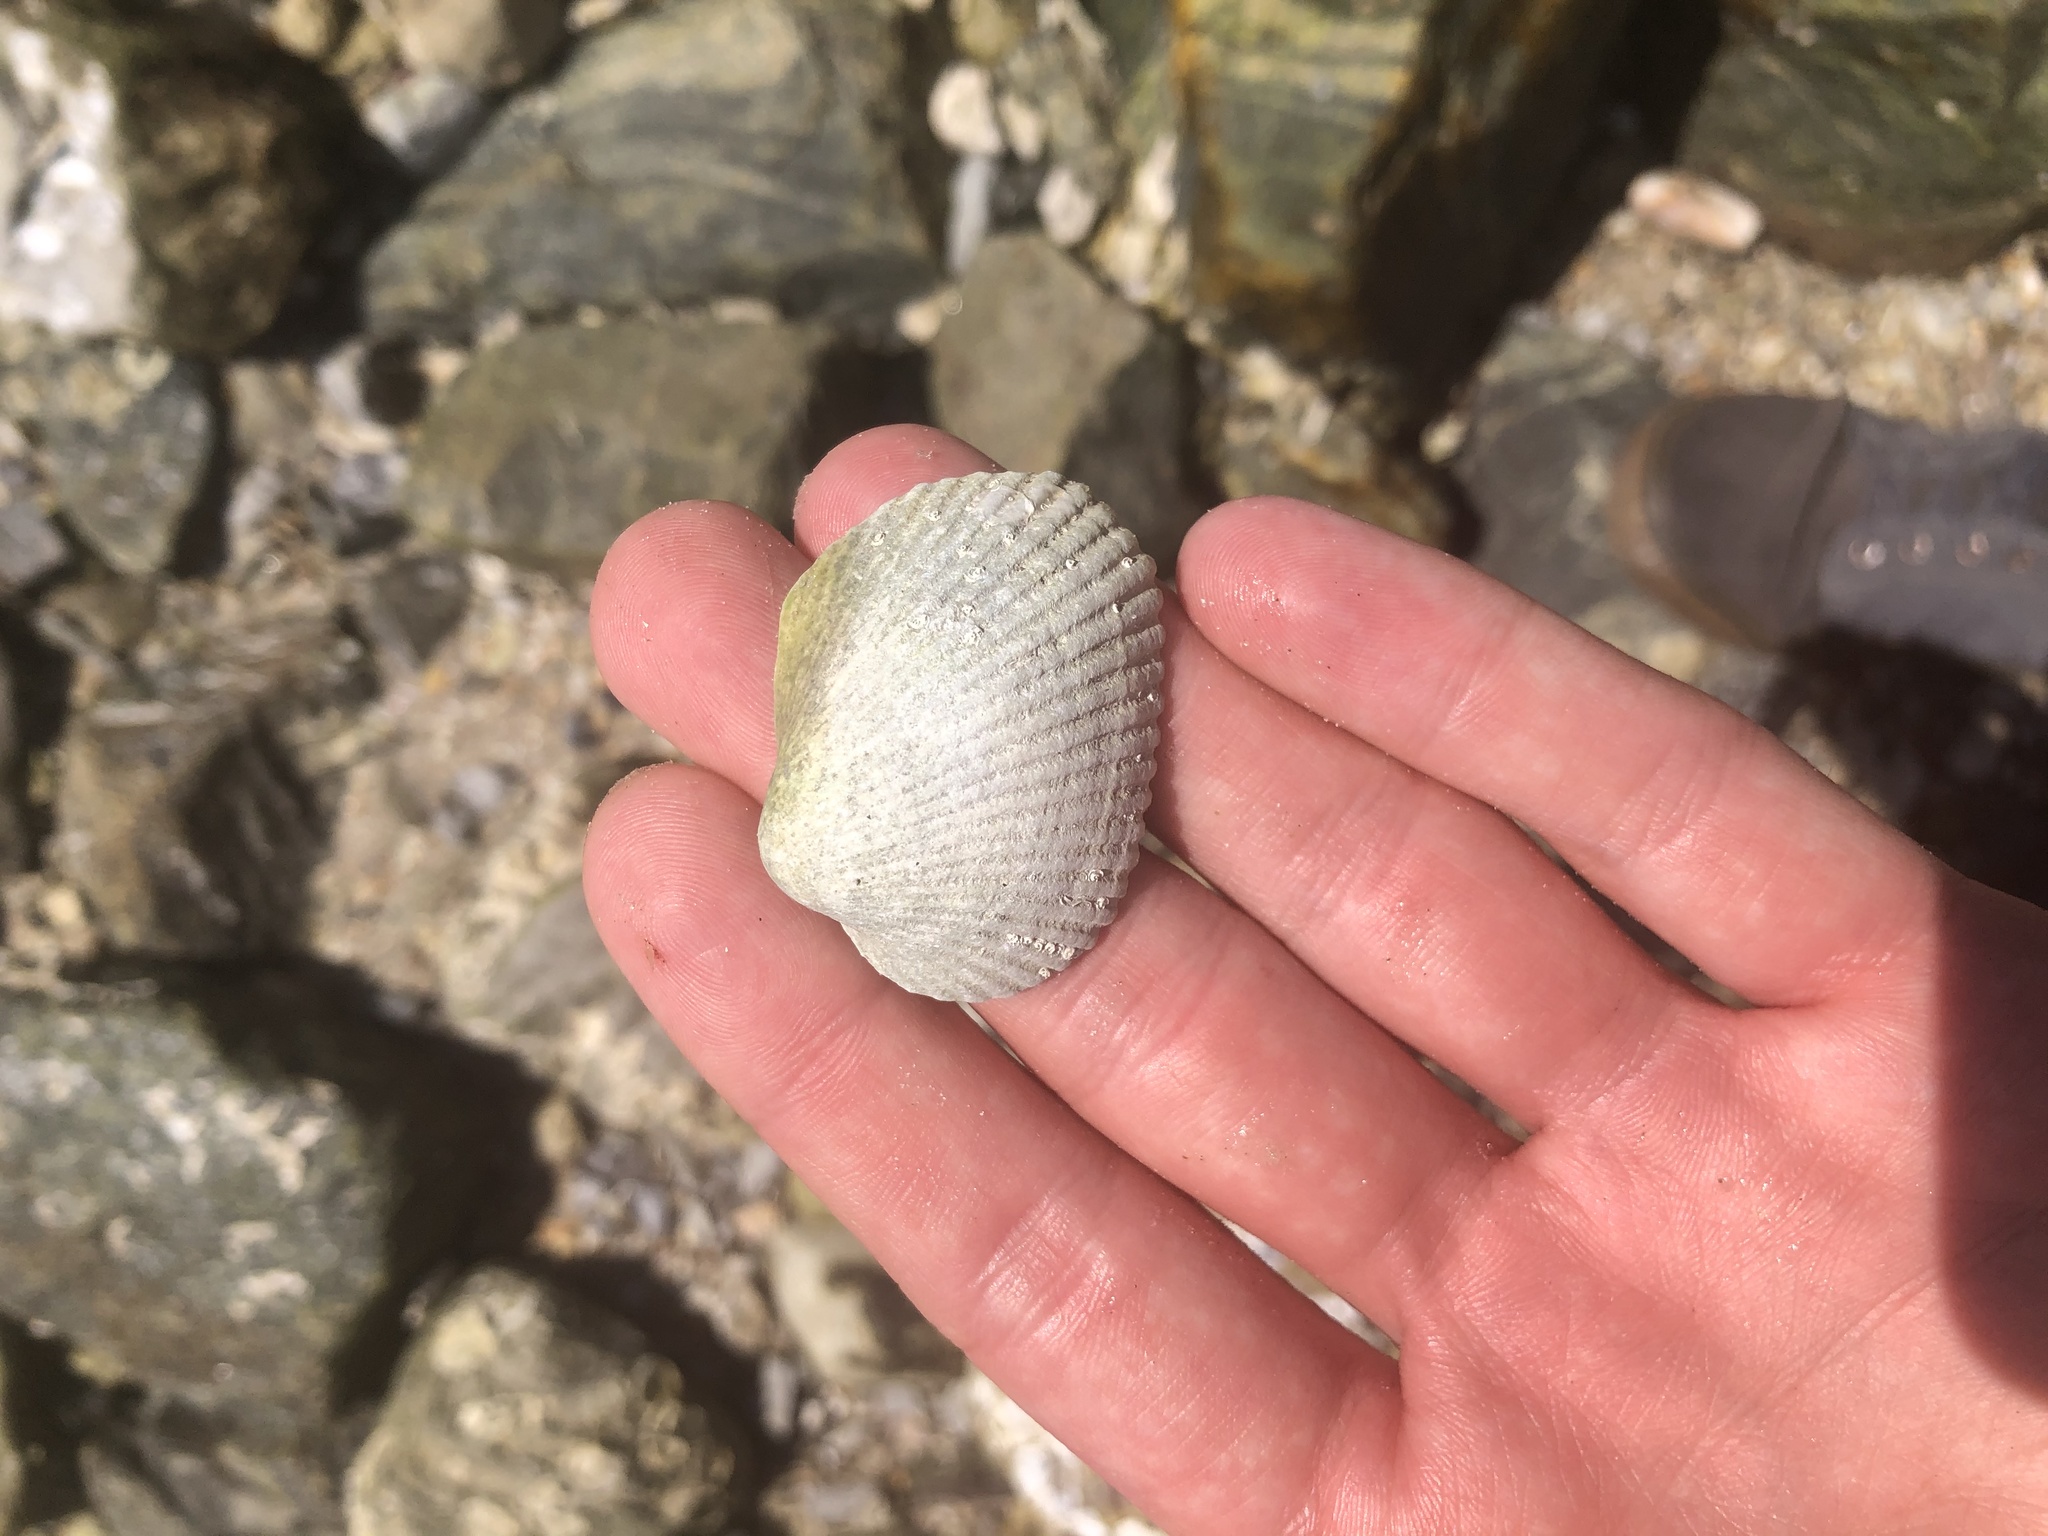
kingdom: Animalia
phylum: Mollusca
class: Bivalvia
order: Arcida
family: Arcidae
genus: Lunarca
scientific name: Lunarca ovalis
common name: Blood ark
